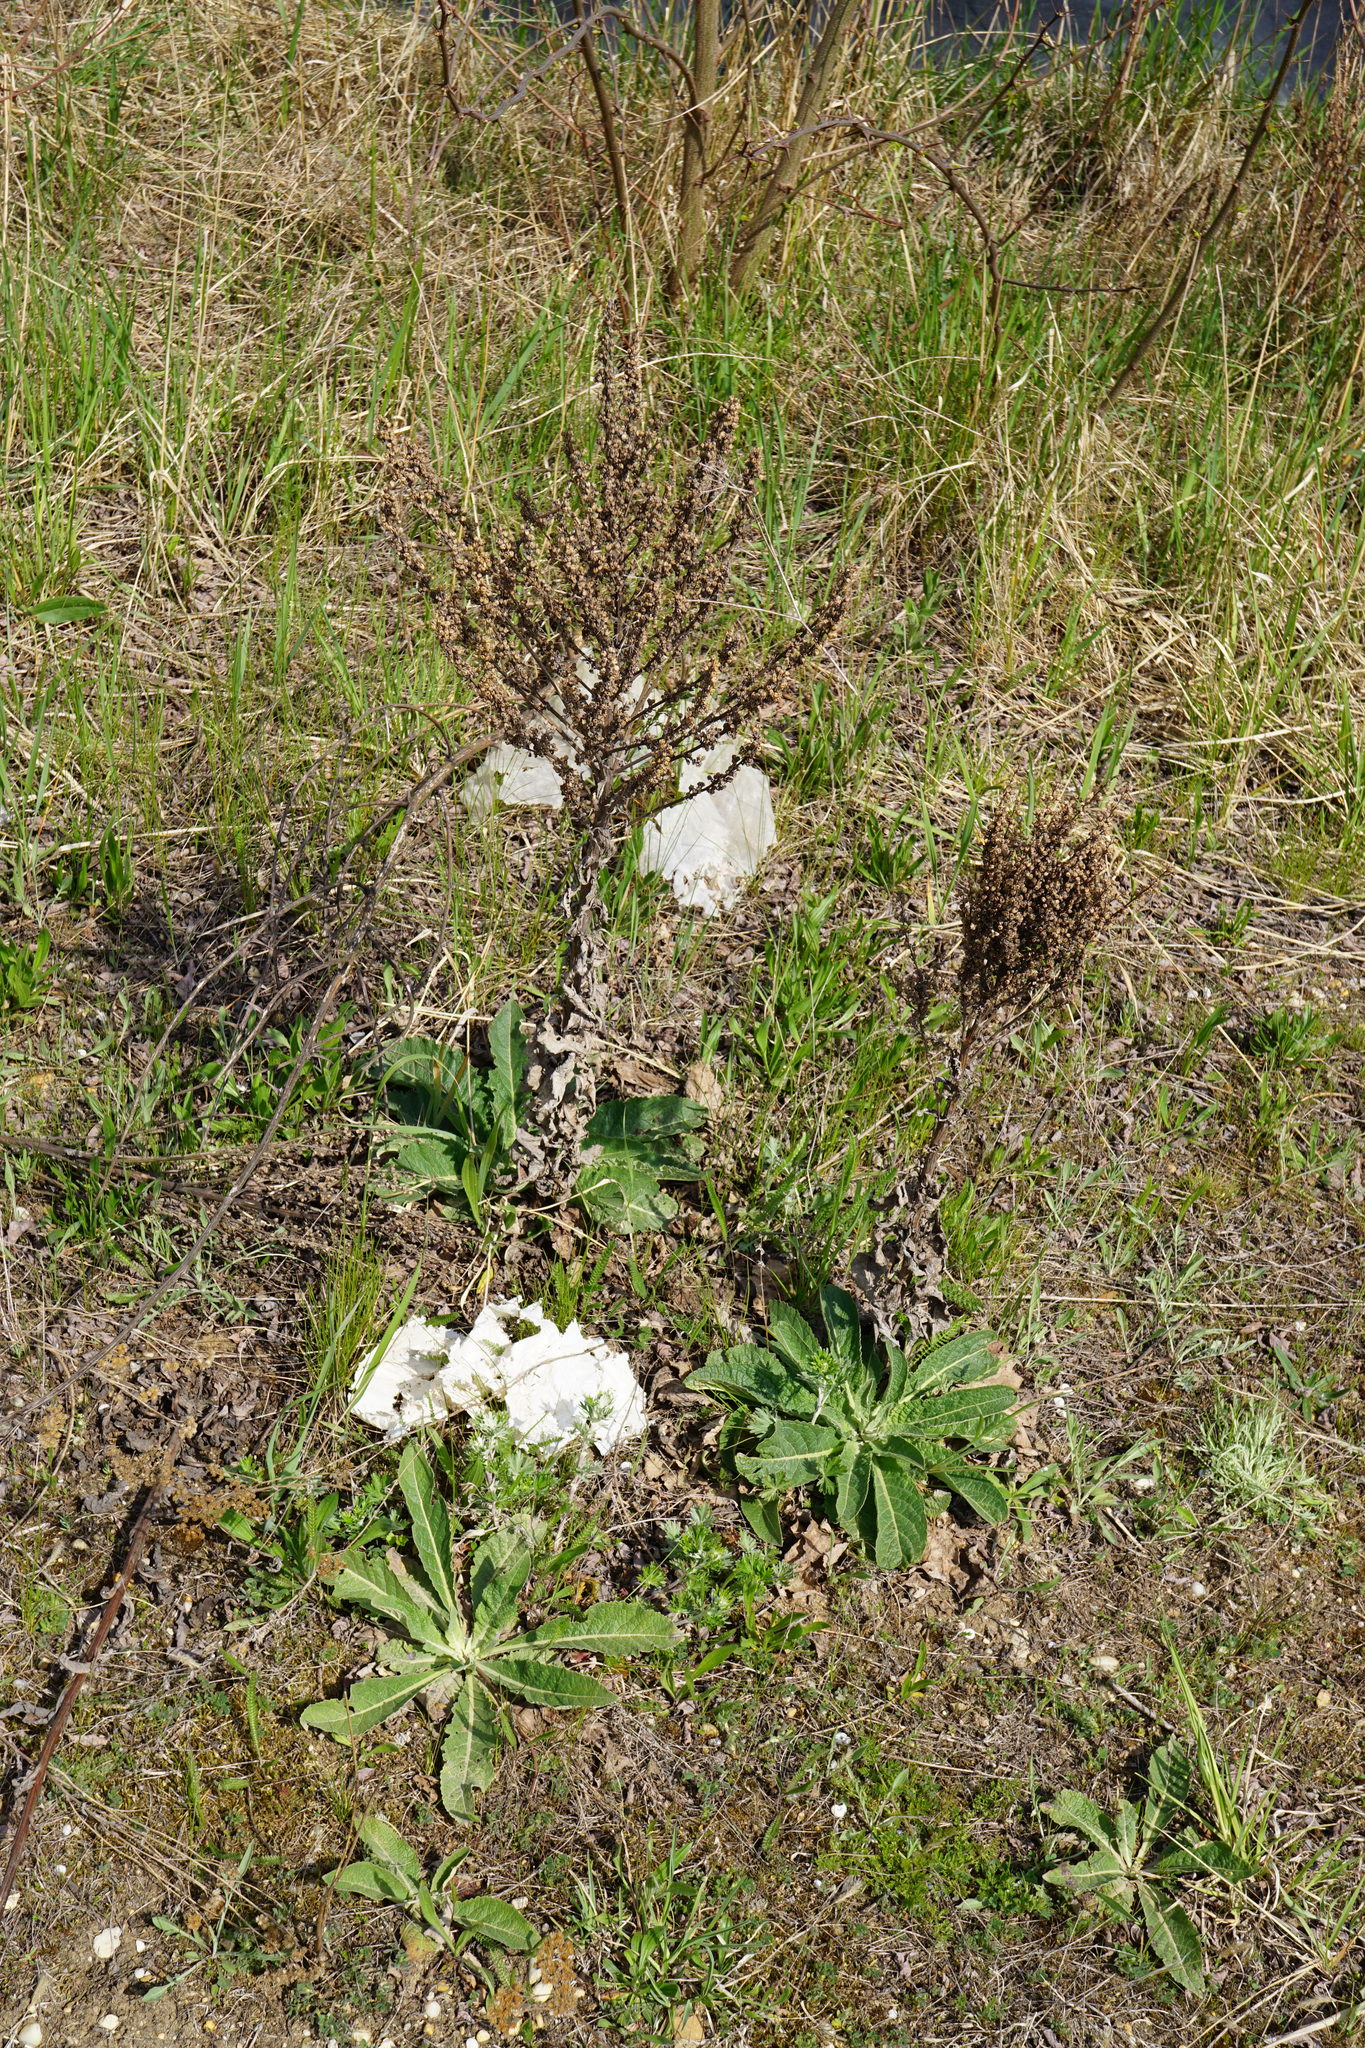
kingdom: Plantae
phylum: Tracheophyta
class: Magnoliopsida
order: Lamiales
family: Scrophulariaceae
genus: Verbascum
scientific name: Verbascum lychnitis
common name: White mullein
